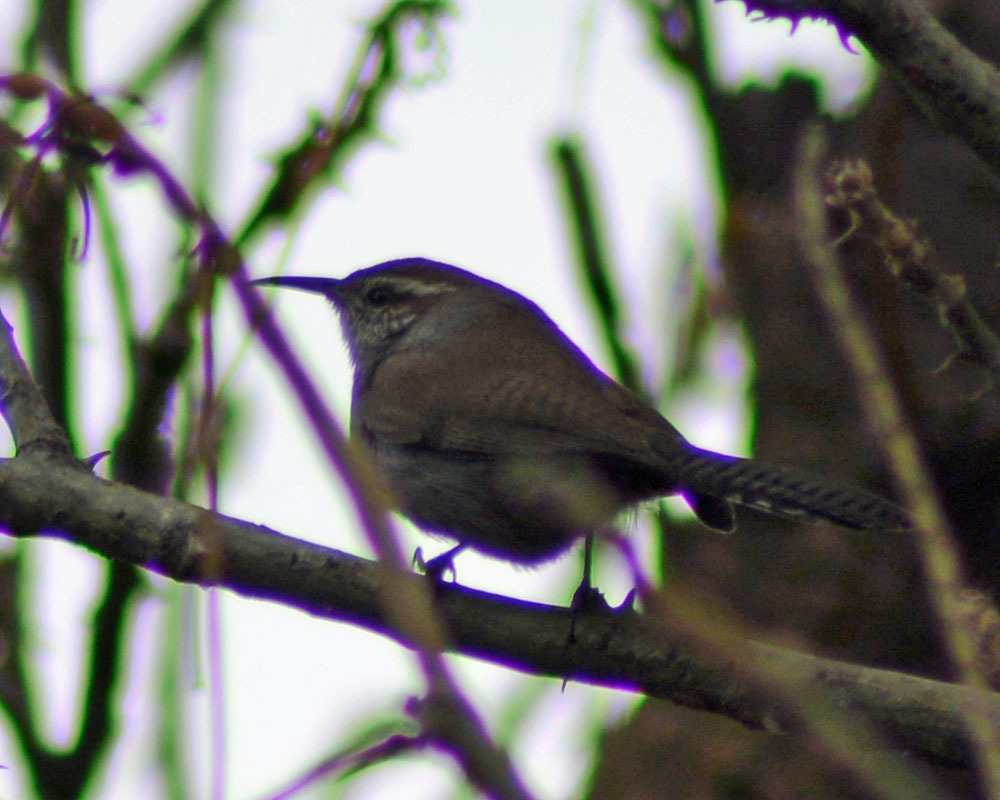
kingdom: Animalia
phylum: Chordata
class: Aves
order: Passeriformes
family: Troglodytidae
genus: Thryomanes
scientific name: Thryomanes bewickii
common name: Bewick's wren
